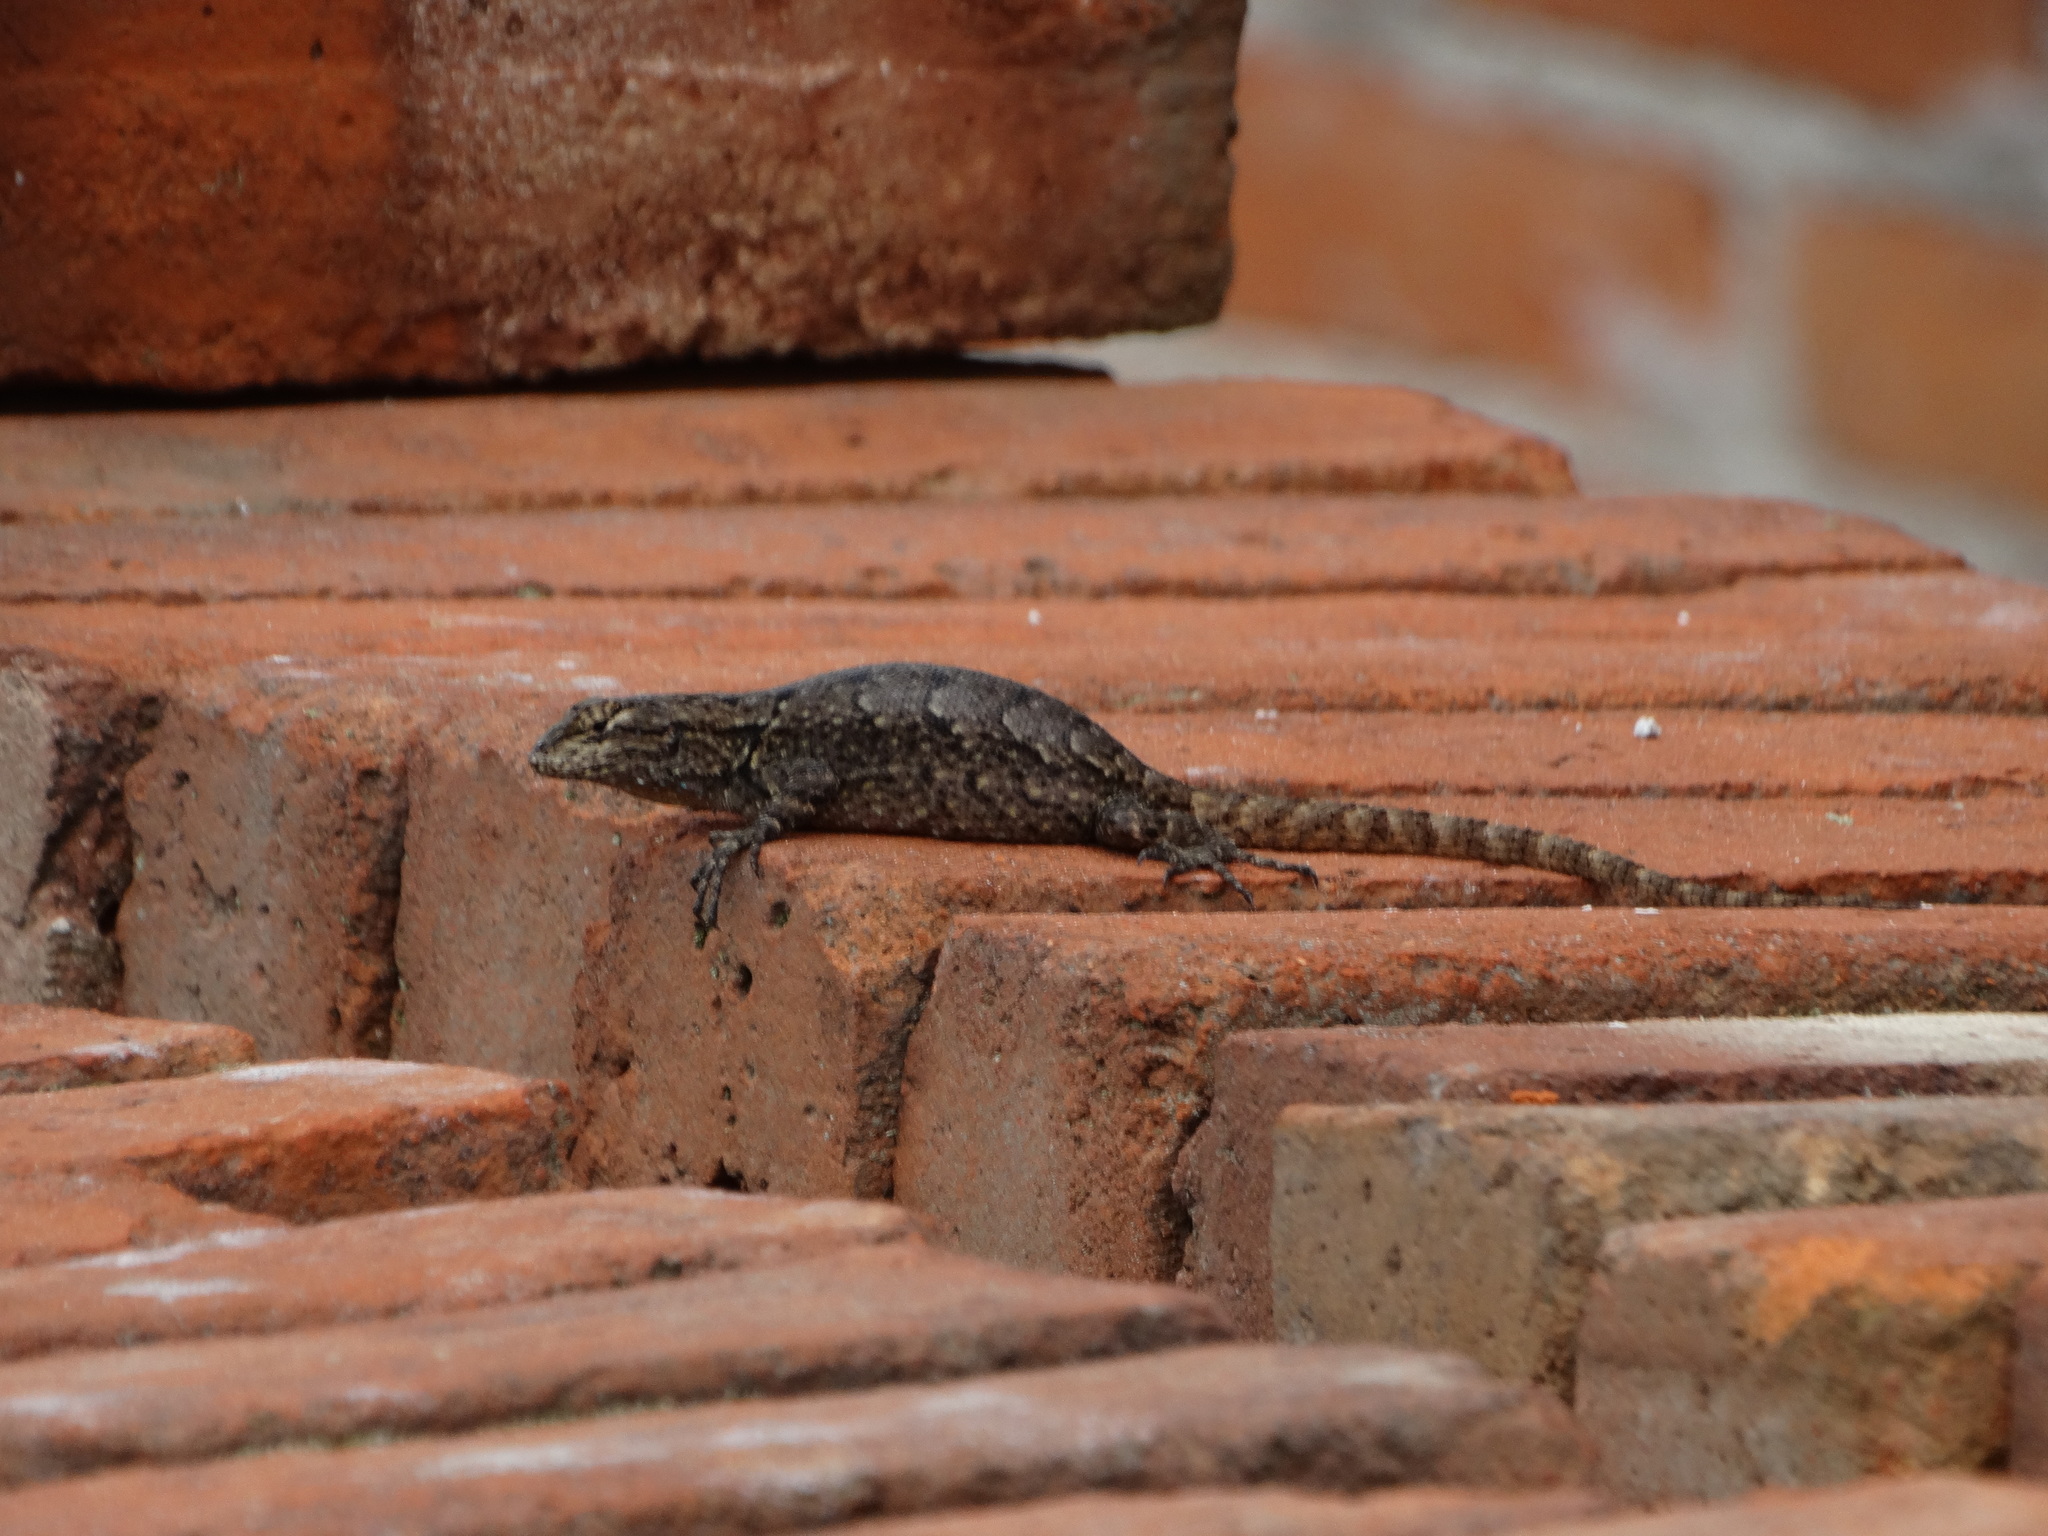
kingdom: Animalia
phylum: Chordata
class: Squamata
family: Phrynosomatidae
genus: Sceloporus
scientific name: Sceloporus grammicus
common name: Mesquite lizard
